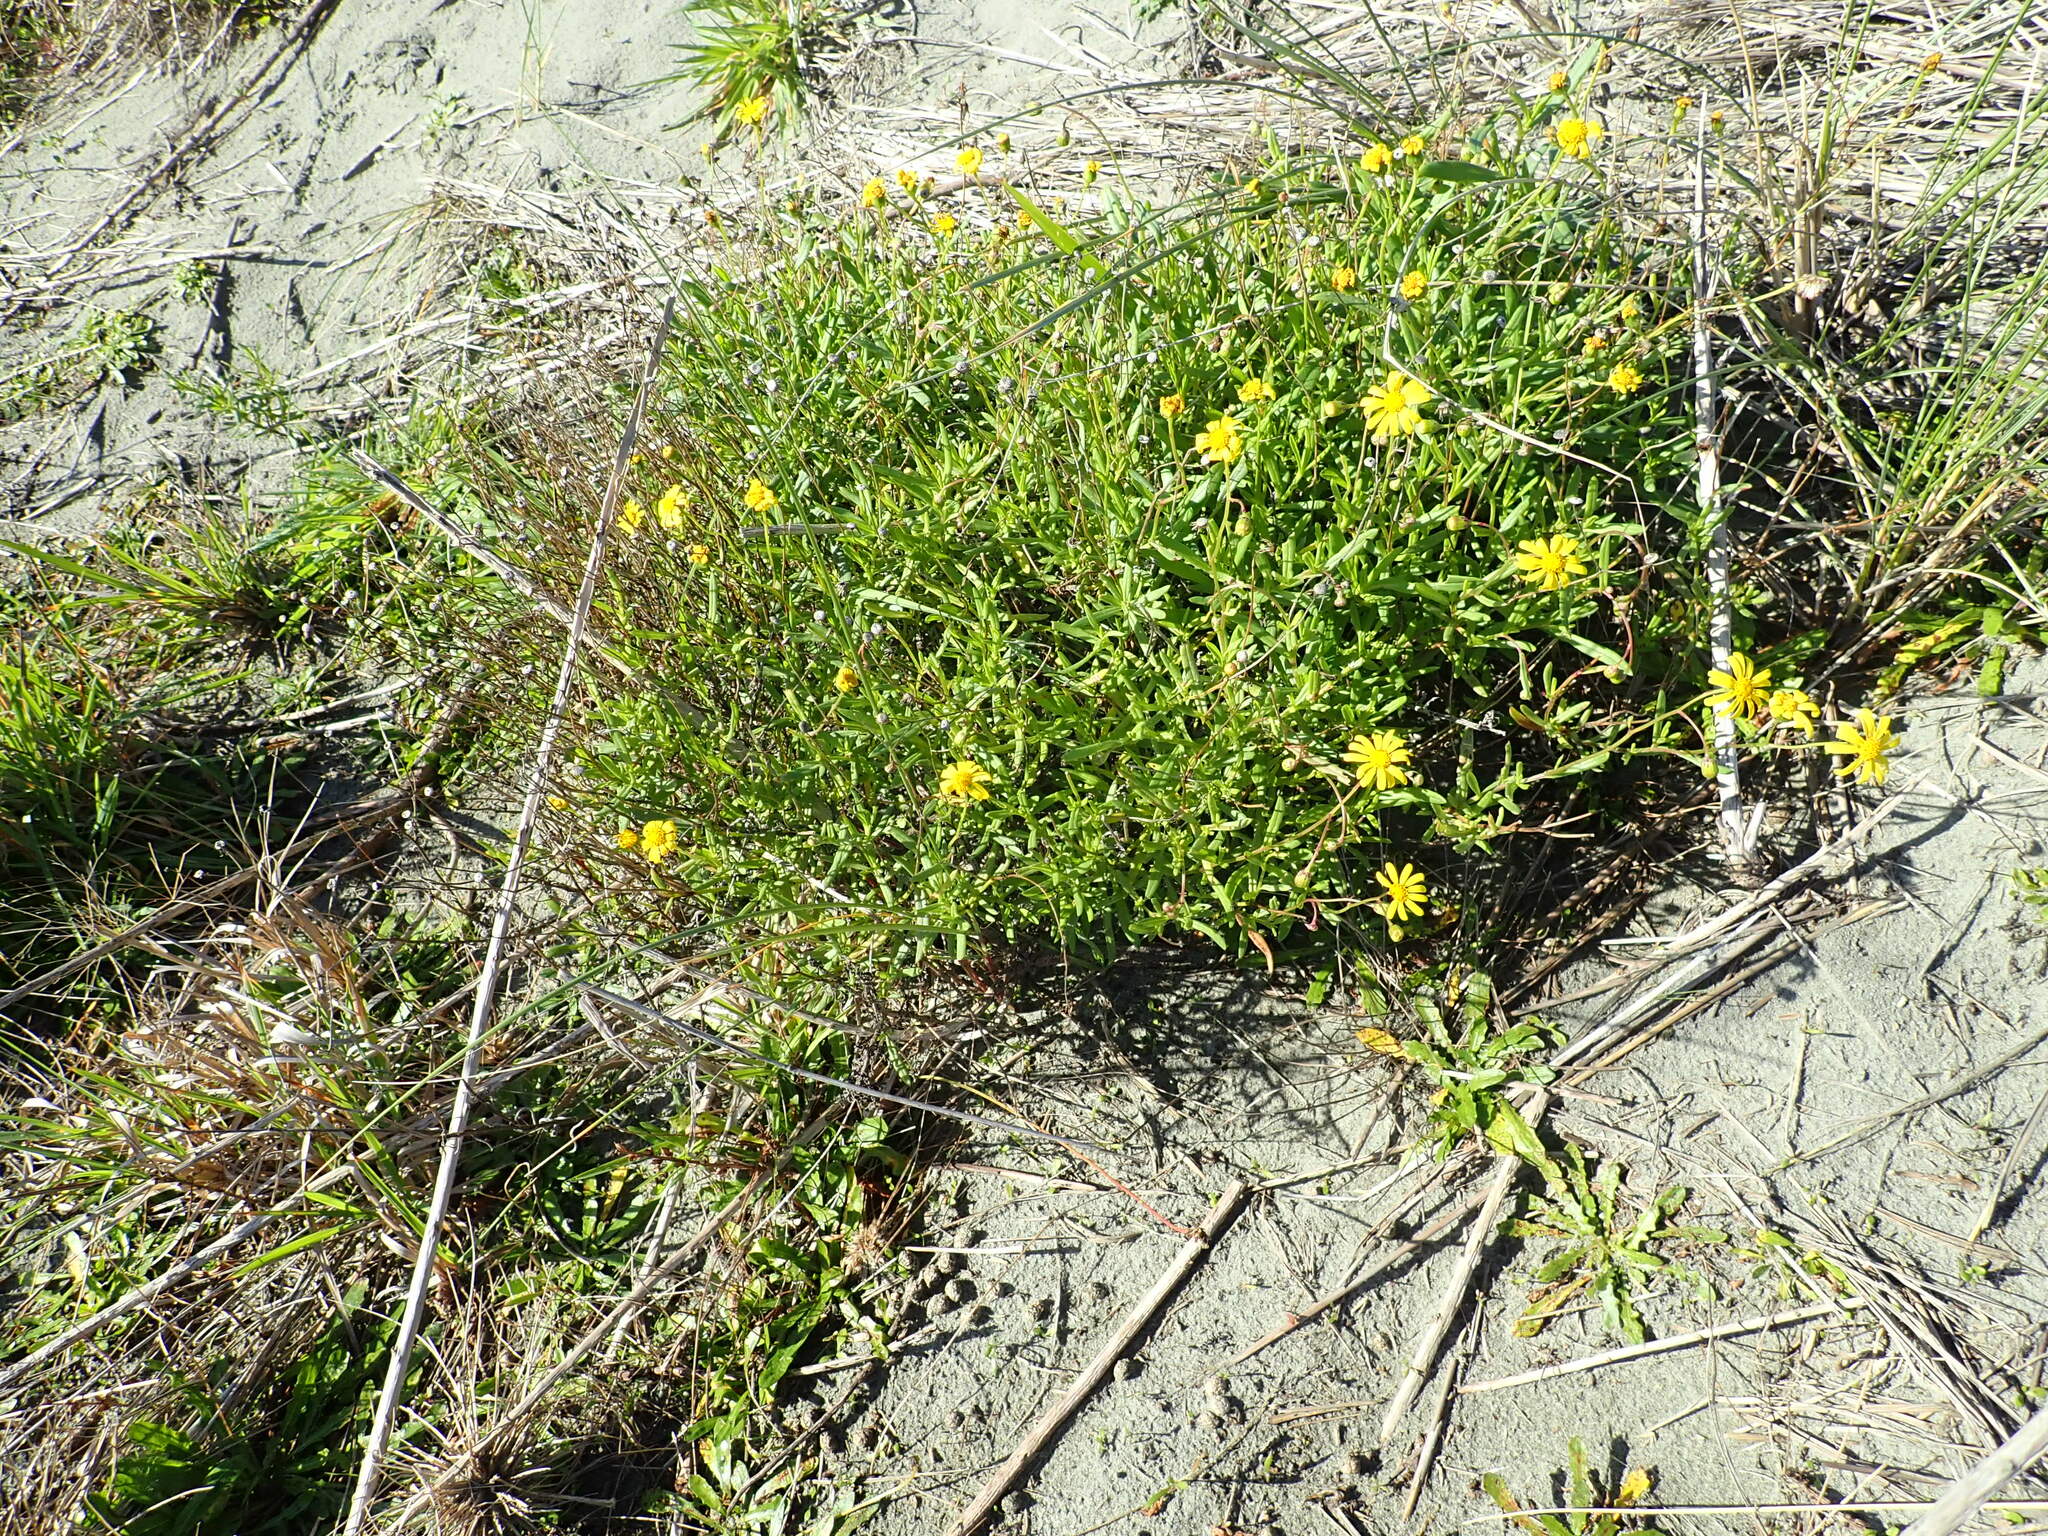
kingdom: Plantae
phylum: Tracheophyta
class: Magnoliopsida
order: Asterales
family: Asteraceae
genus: Senecio
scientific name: Senecio skirrhodon
